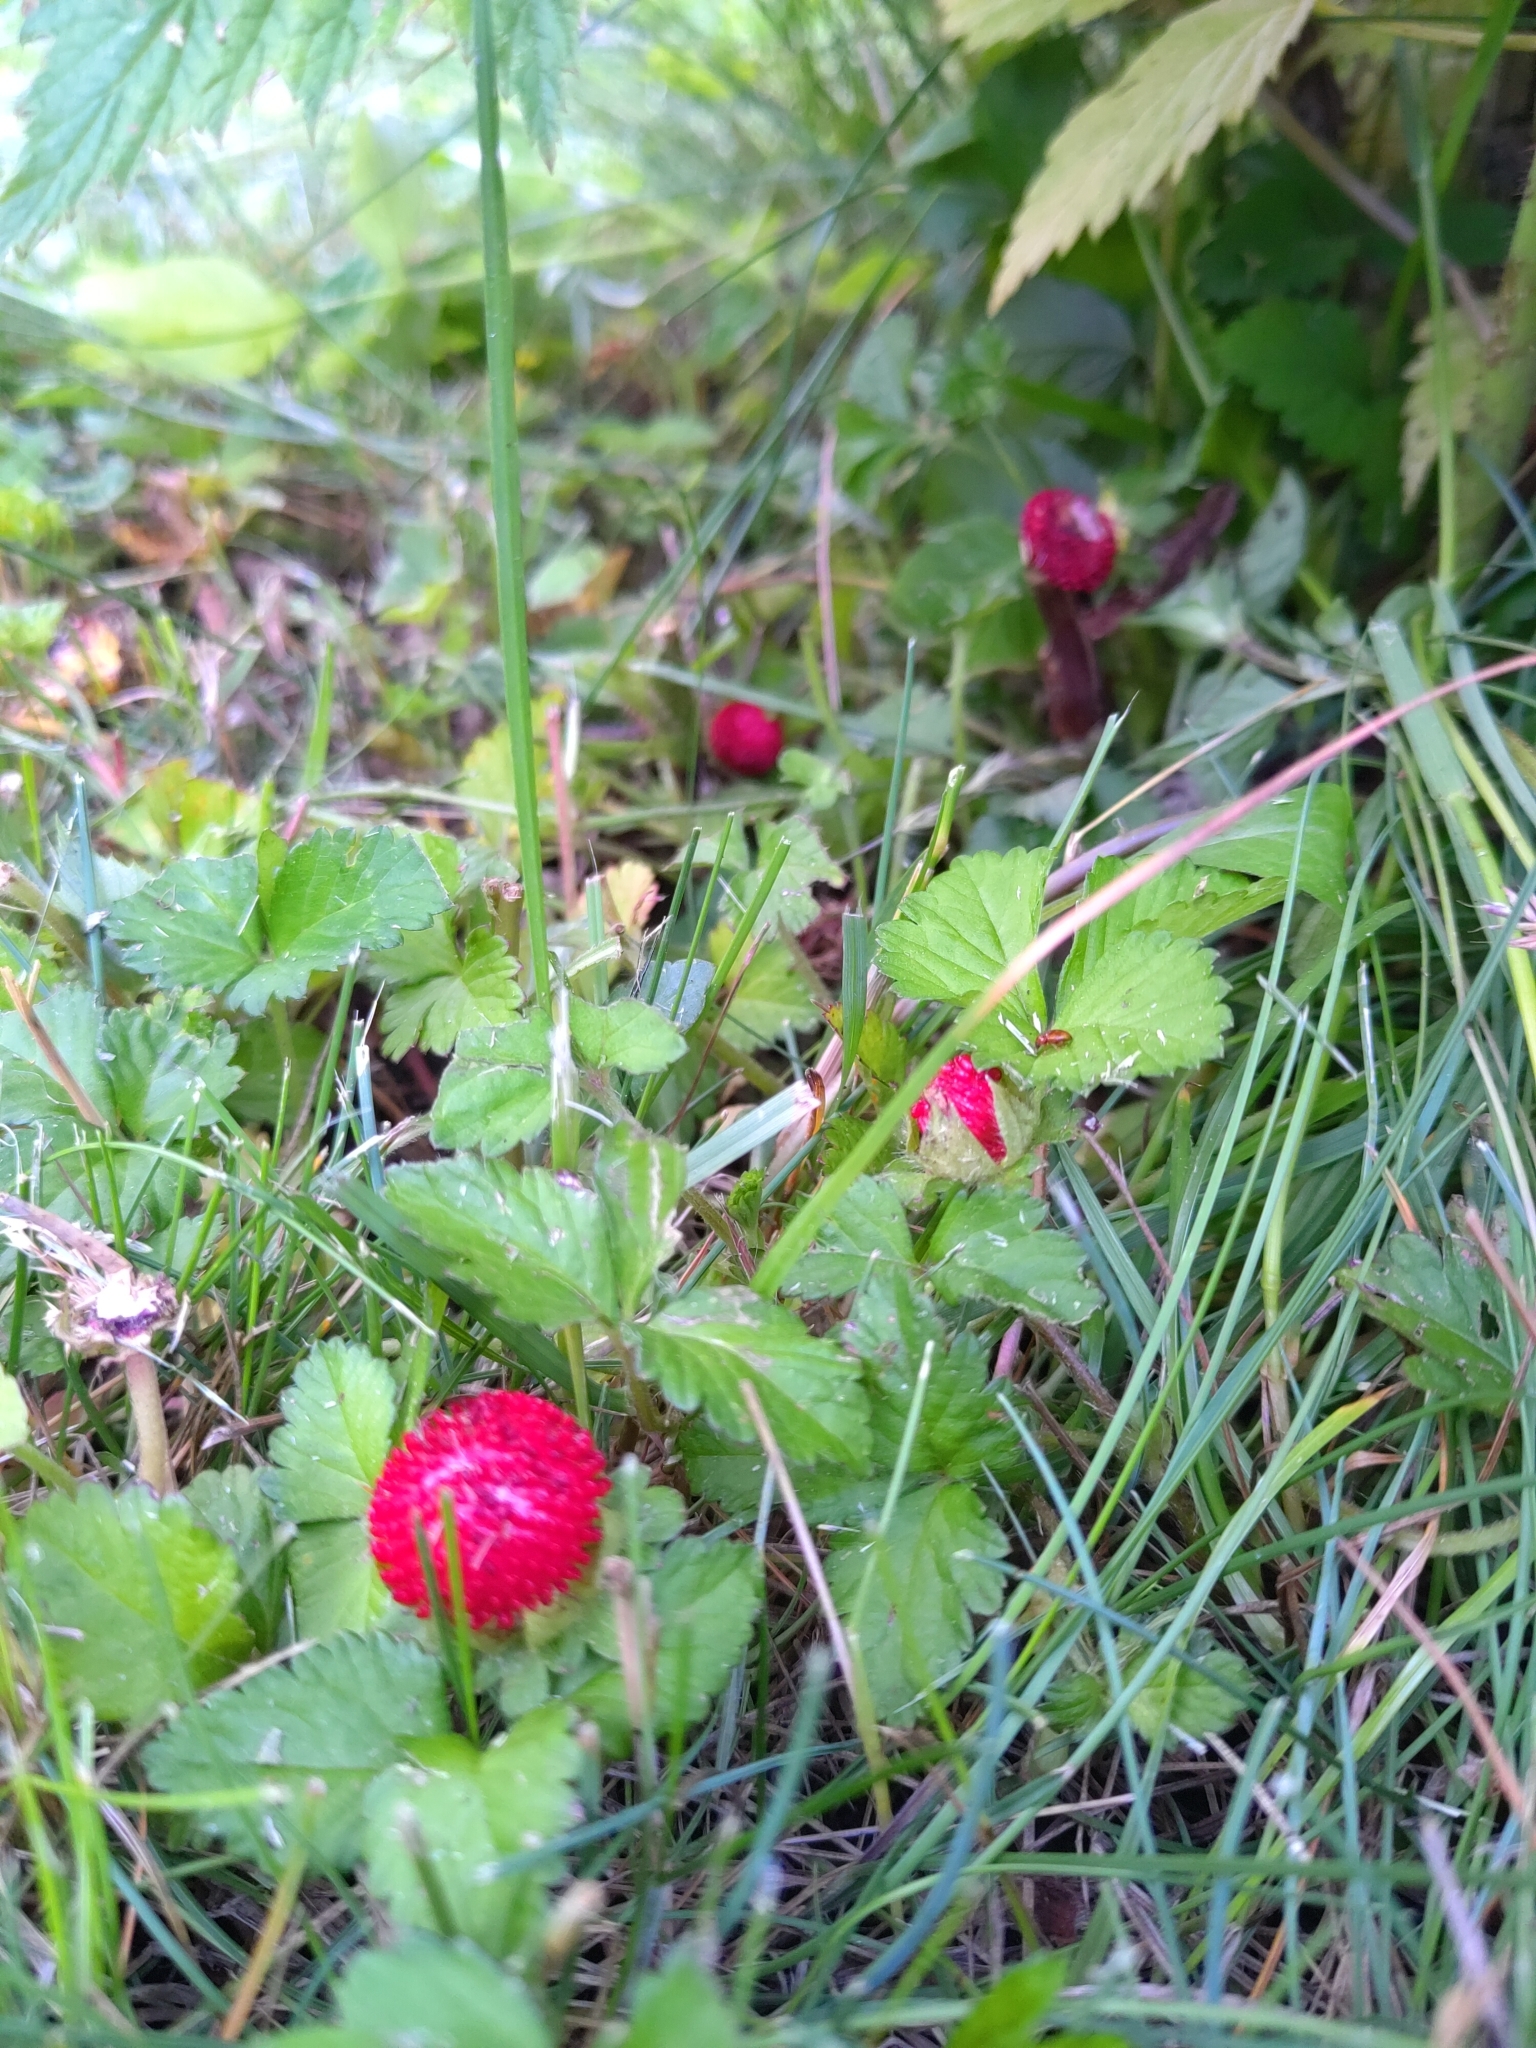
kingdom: Plantae
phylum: Tracheophyta
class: Magnoliopsida
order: Rosales
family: Rosaceae
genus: Potentilla
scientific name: Potentilla indica
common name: Yellow-flowered strawberry
